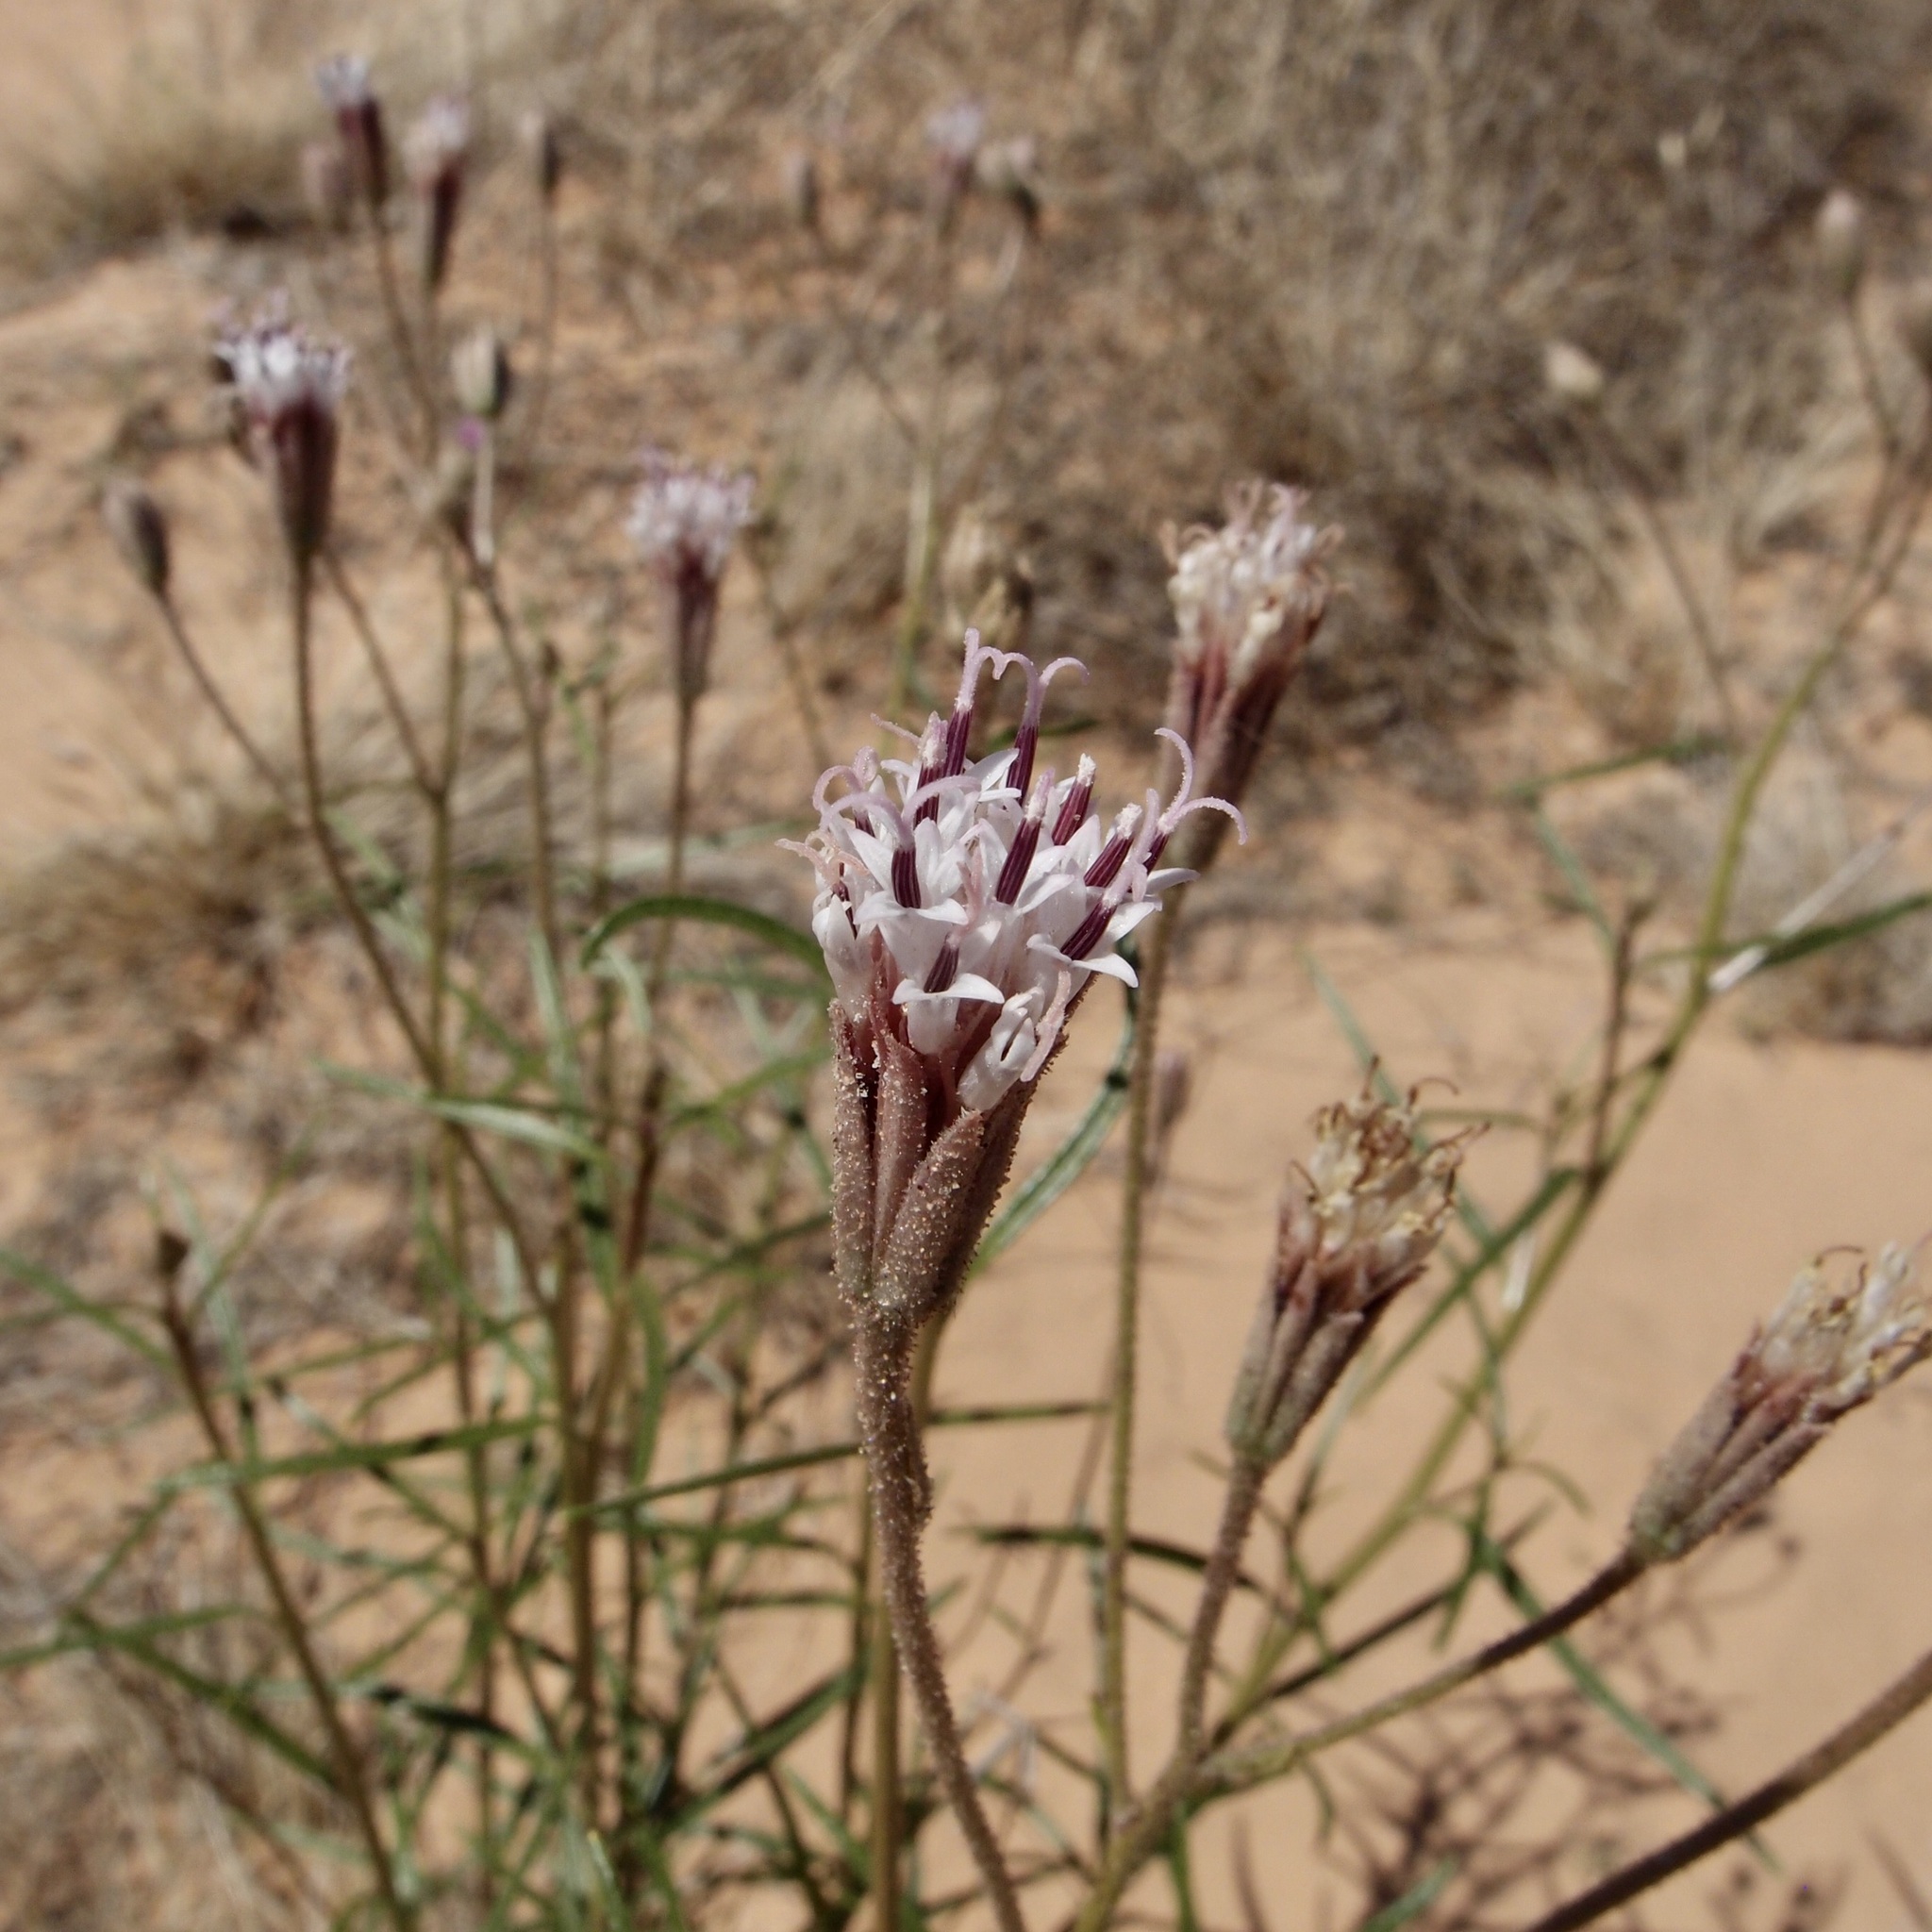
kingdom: Plantae
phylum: Tracheophyta
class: Magnoliopsida
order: Asterales
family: Asteraceae
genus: Palafoxia
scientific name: Palafoxia arida
